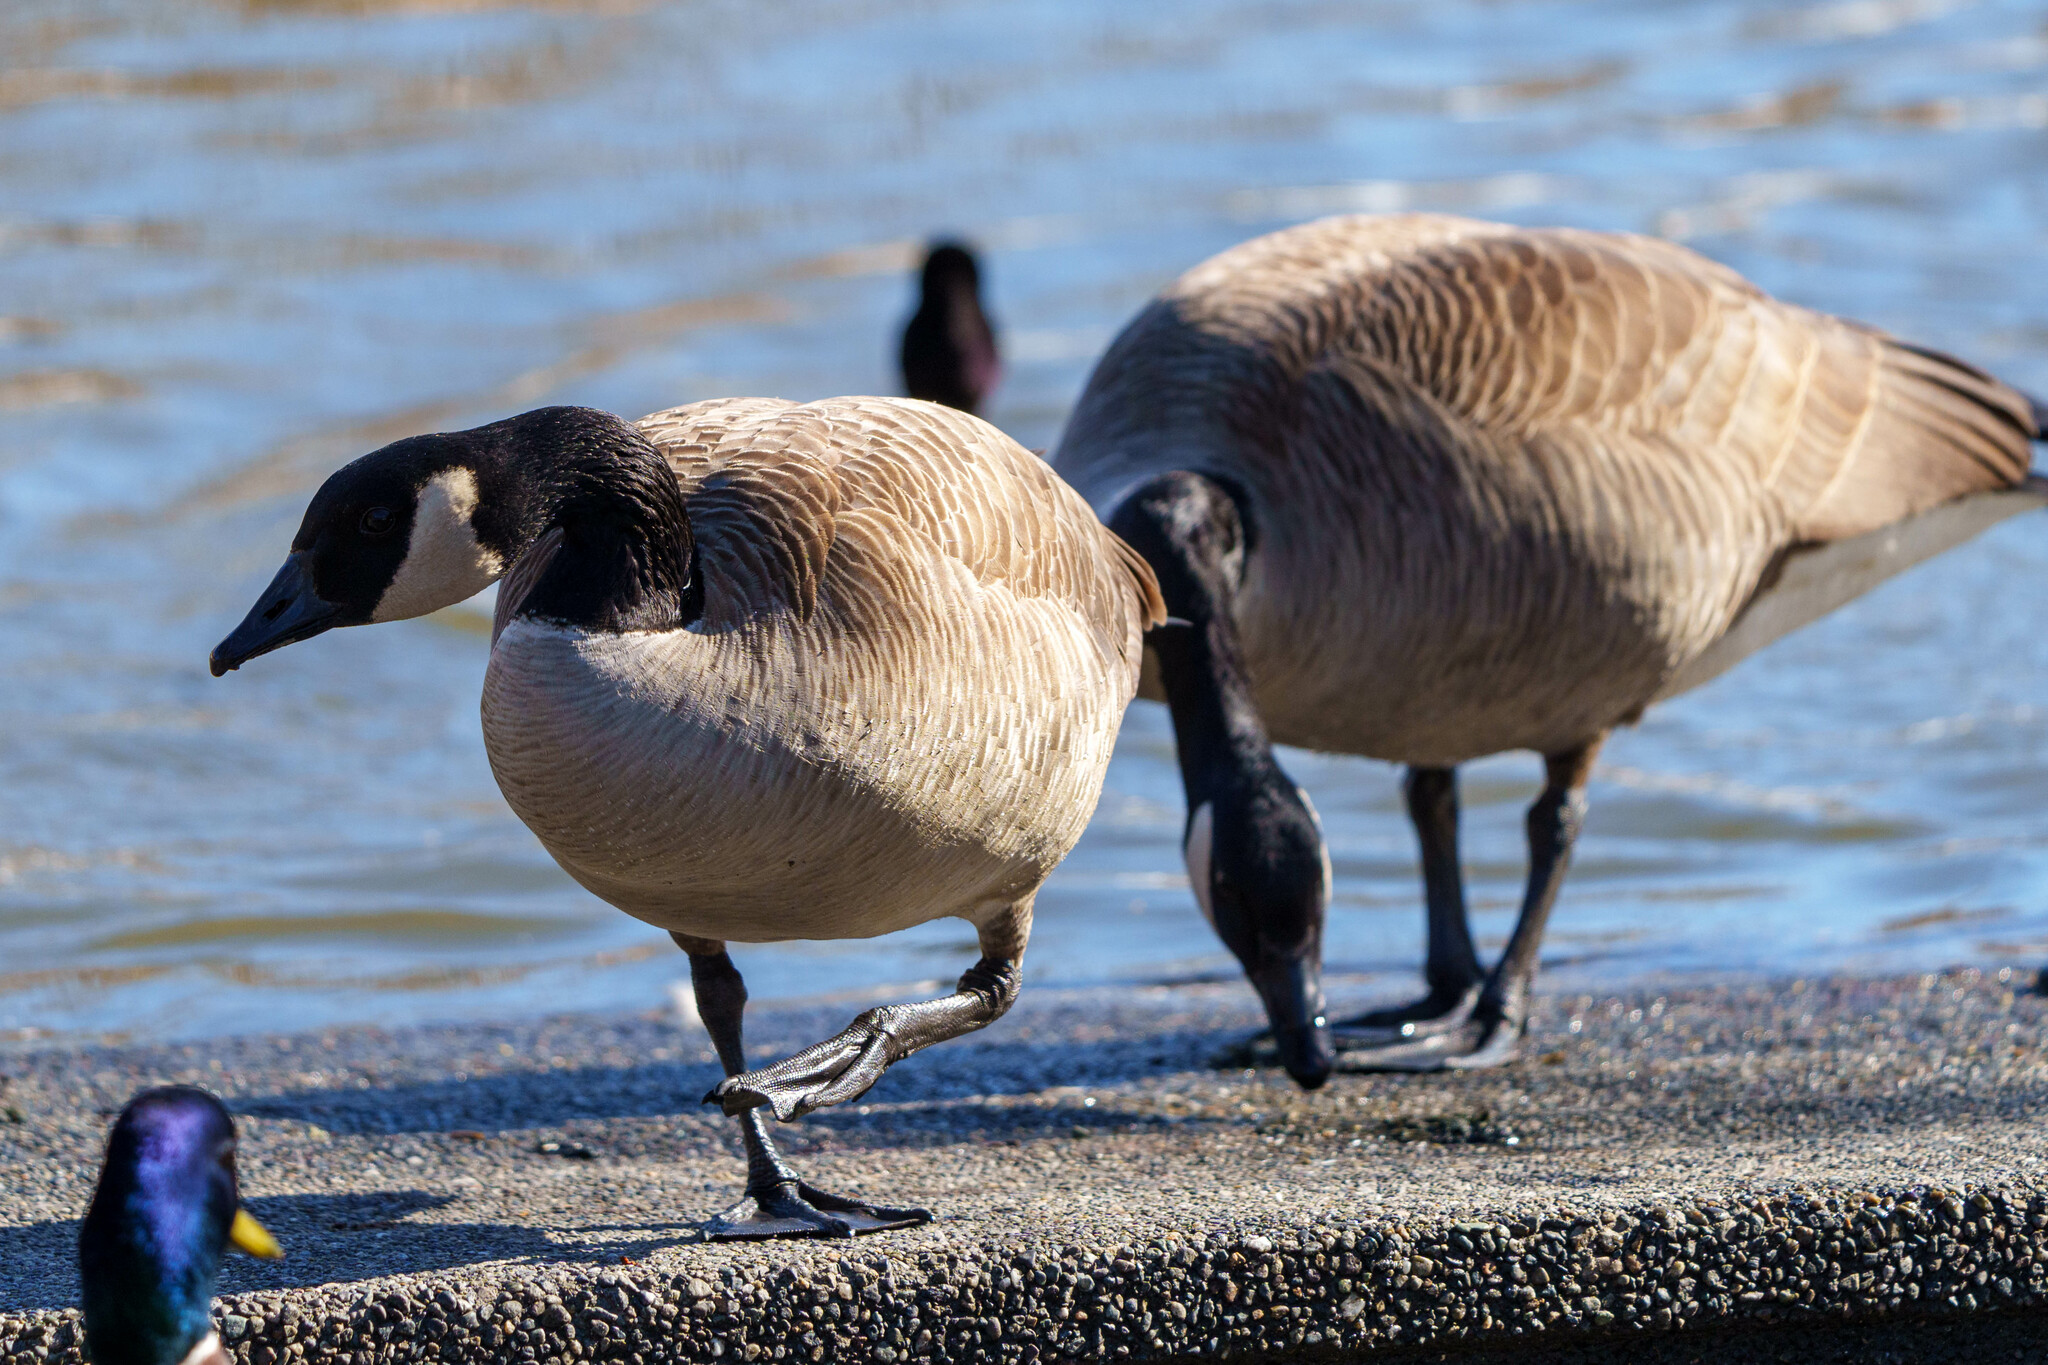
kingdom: Animalia
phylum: Chordata
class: Aves
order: Anseriformes
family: Anatidae
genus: Branta
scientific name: Branta canadensis
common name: Canada goose
